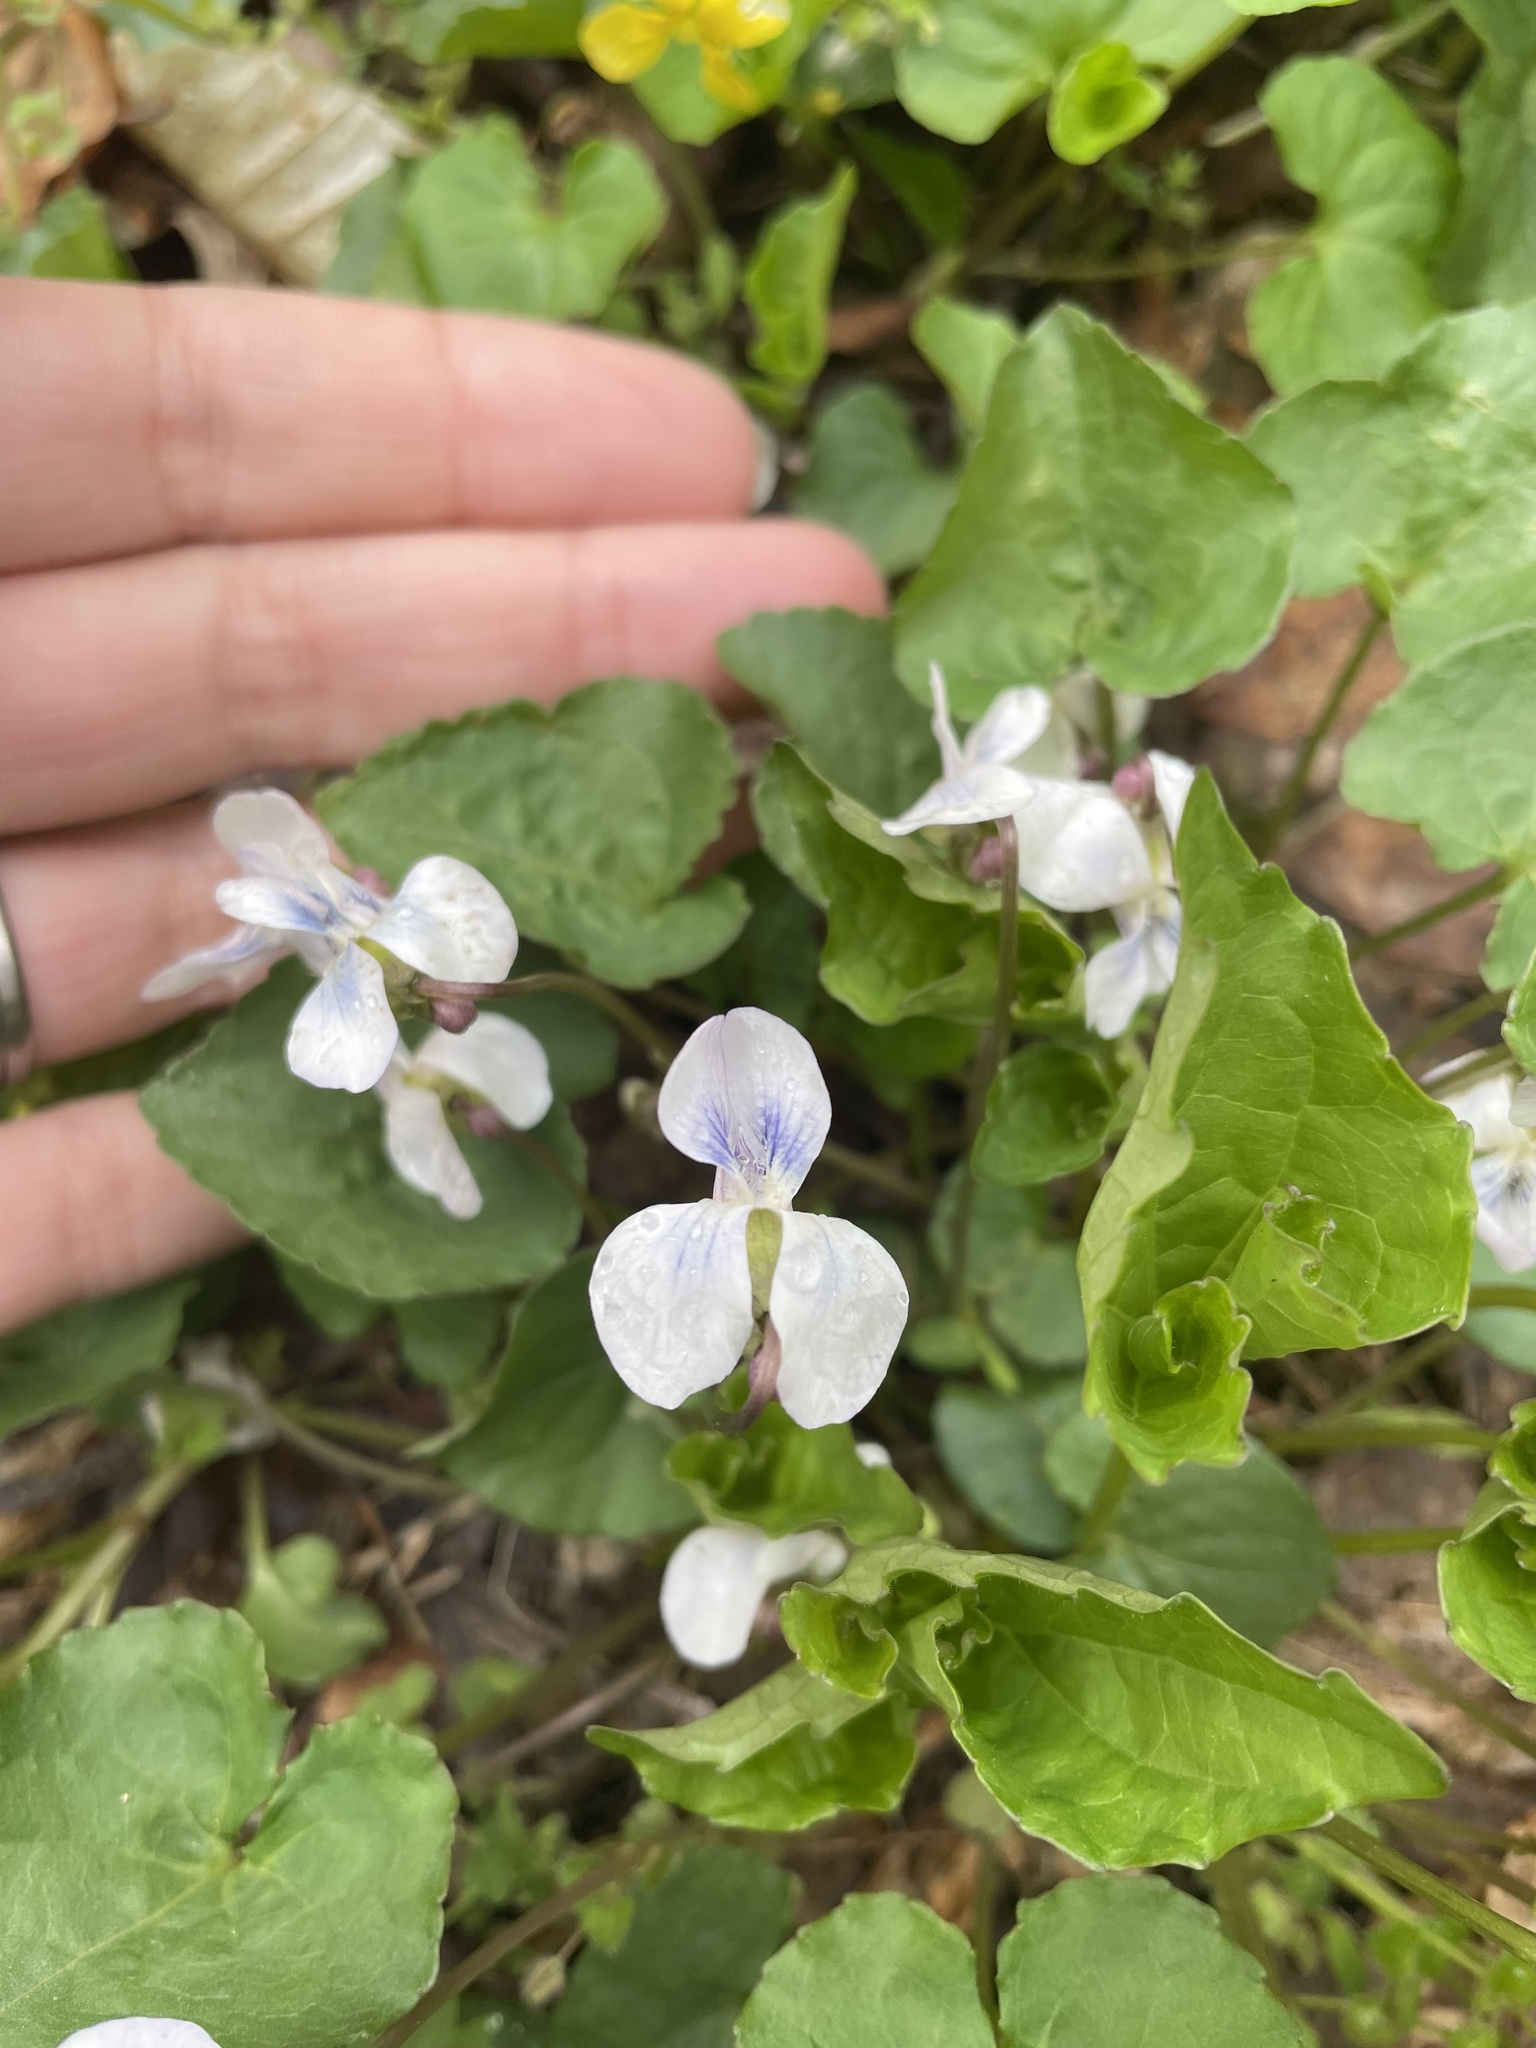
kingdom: Plantae
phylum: Tracheophyta
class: Magnoliopsida
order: Malpighiales
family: Violaceae
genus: Viola
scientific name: Viola sororia
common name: Dooryard violet
